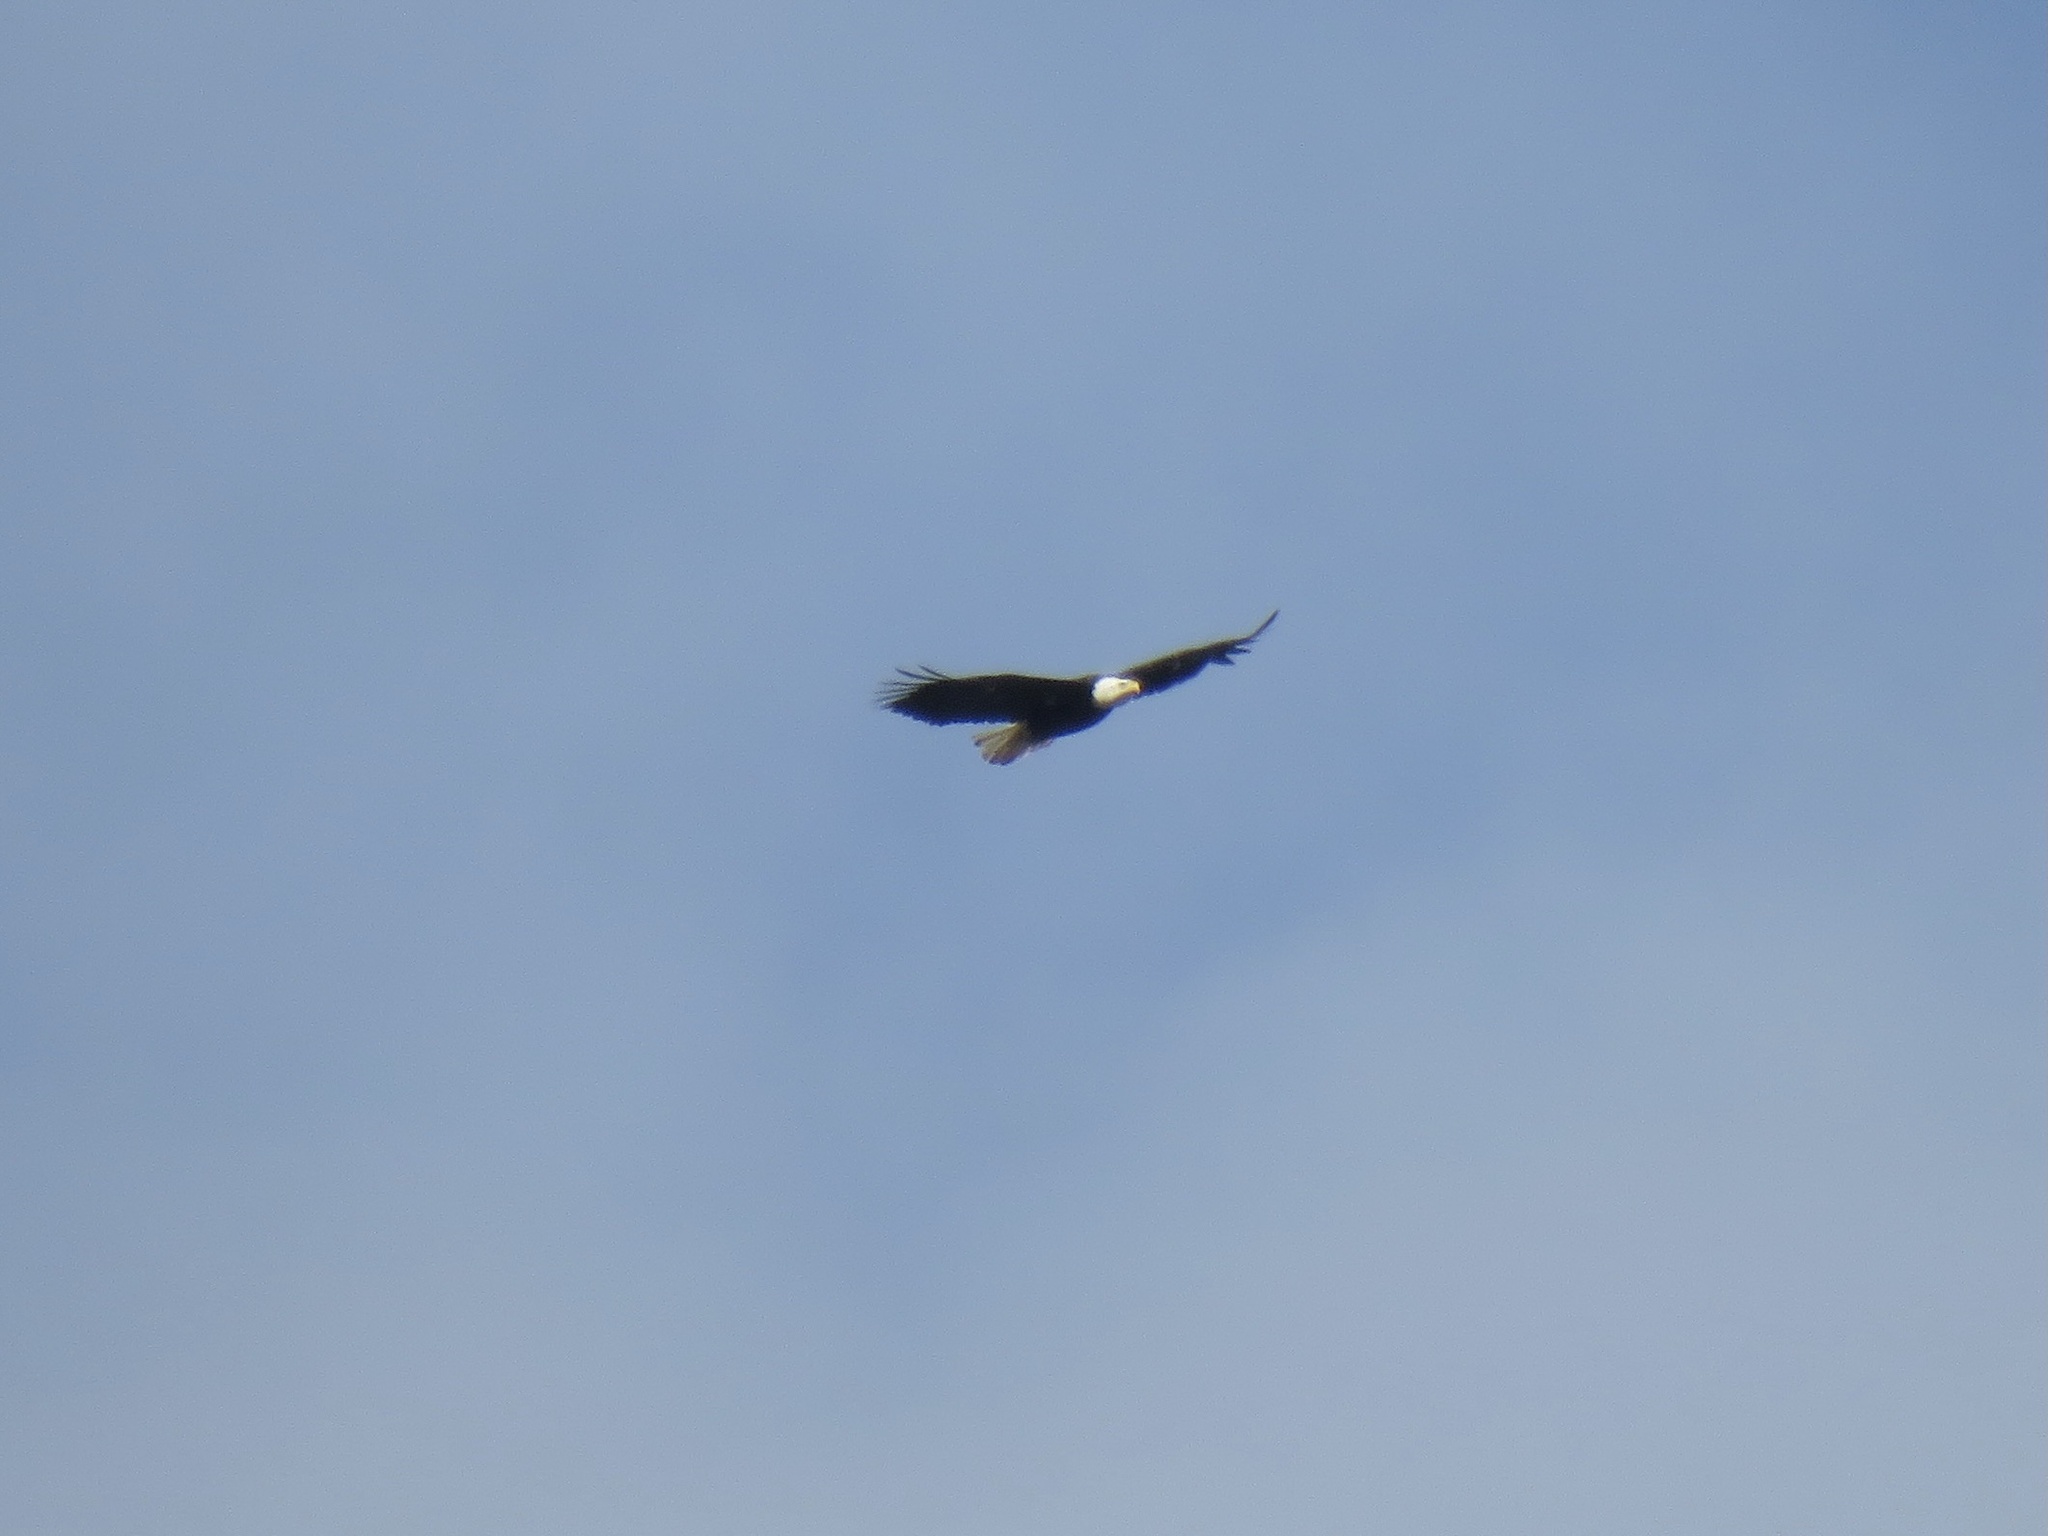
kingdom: Animalia
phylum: Chordata
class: Aves
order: Accipitriformes
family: Accipitridae
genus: Haliaeetus
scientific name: Haliaeetus leucocephalus
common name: Bald eagle
